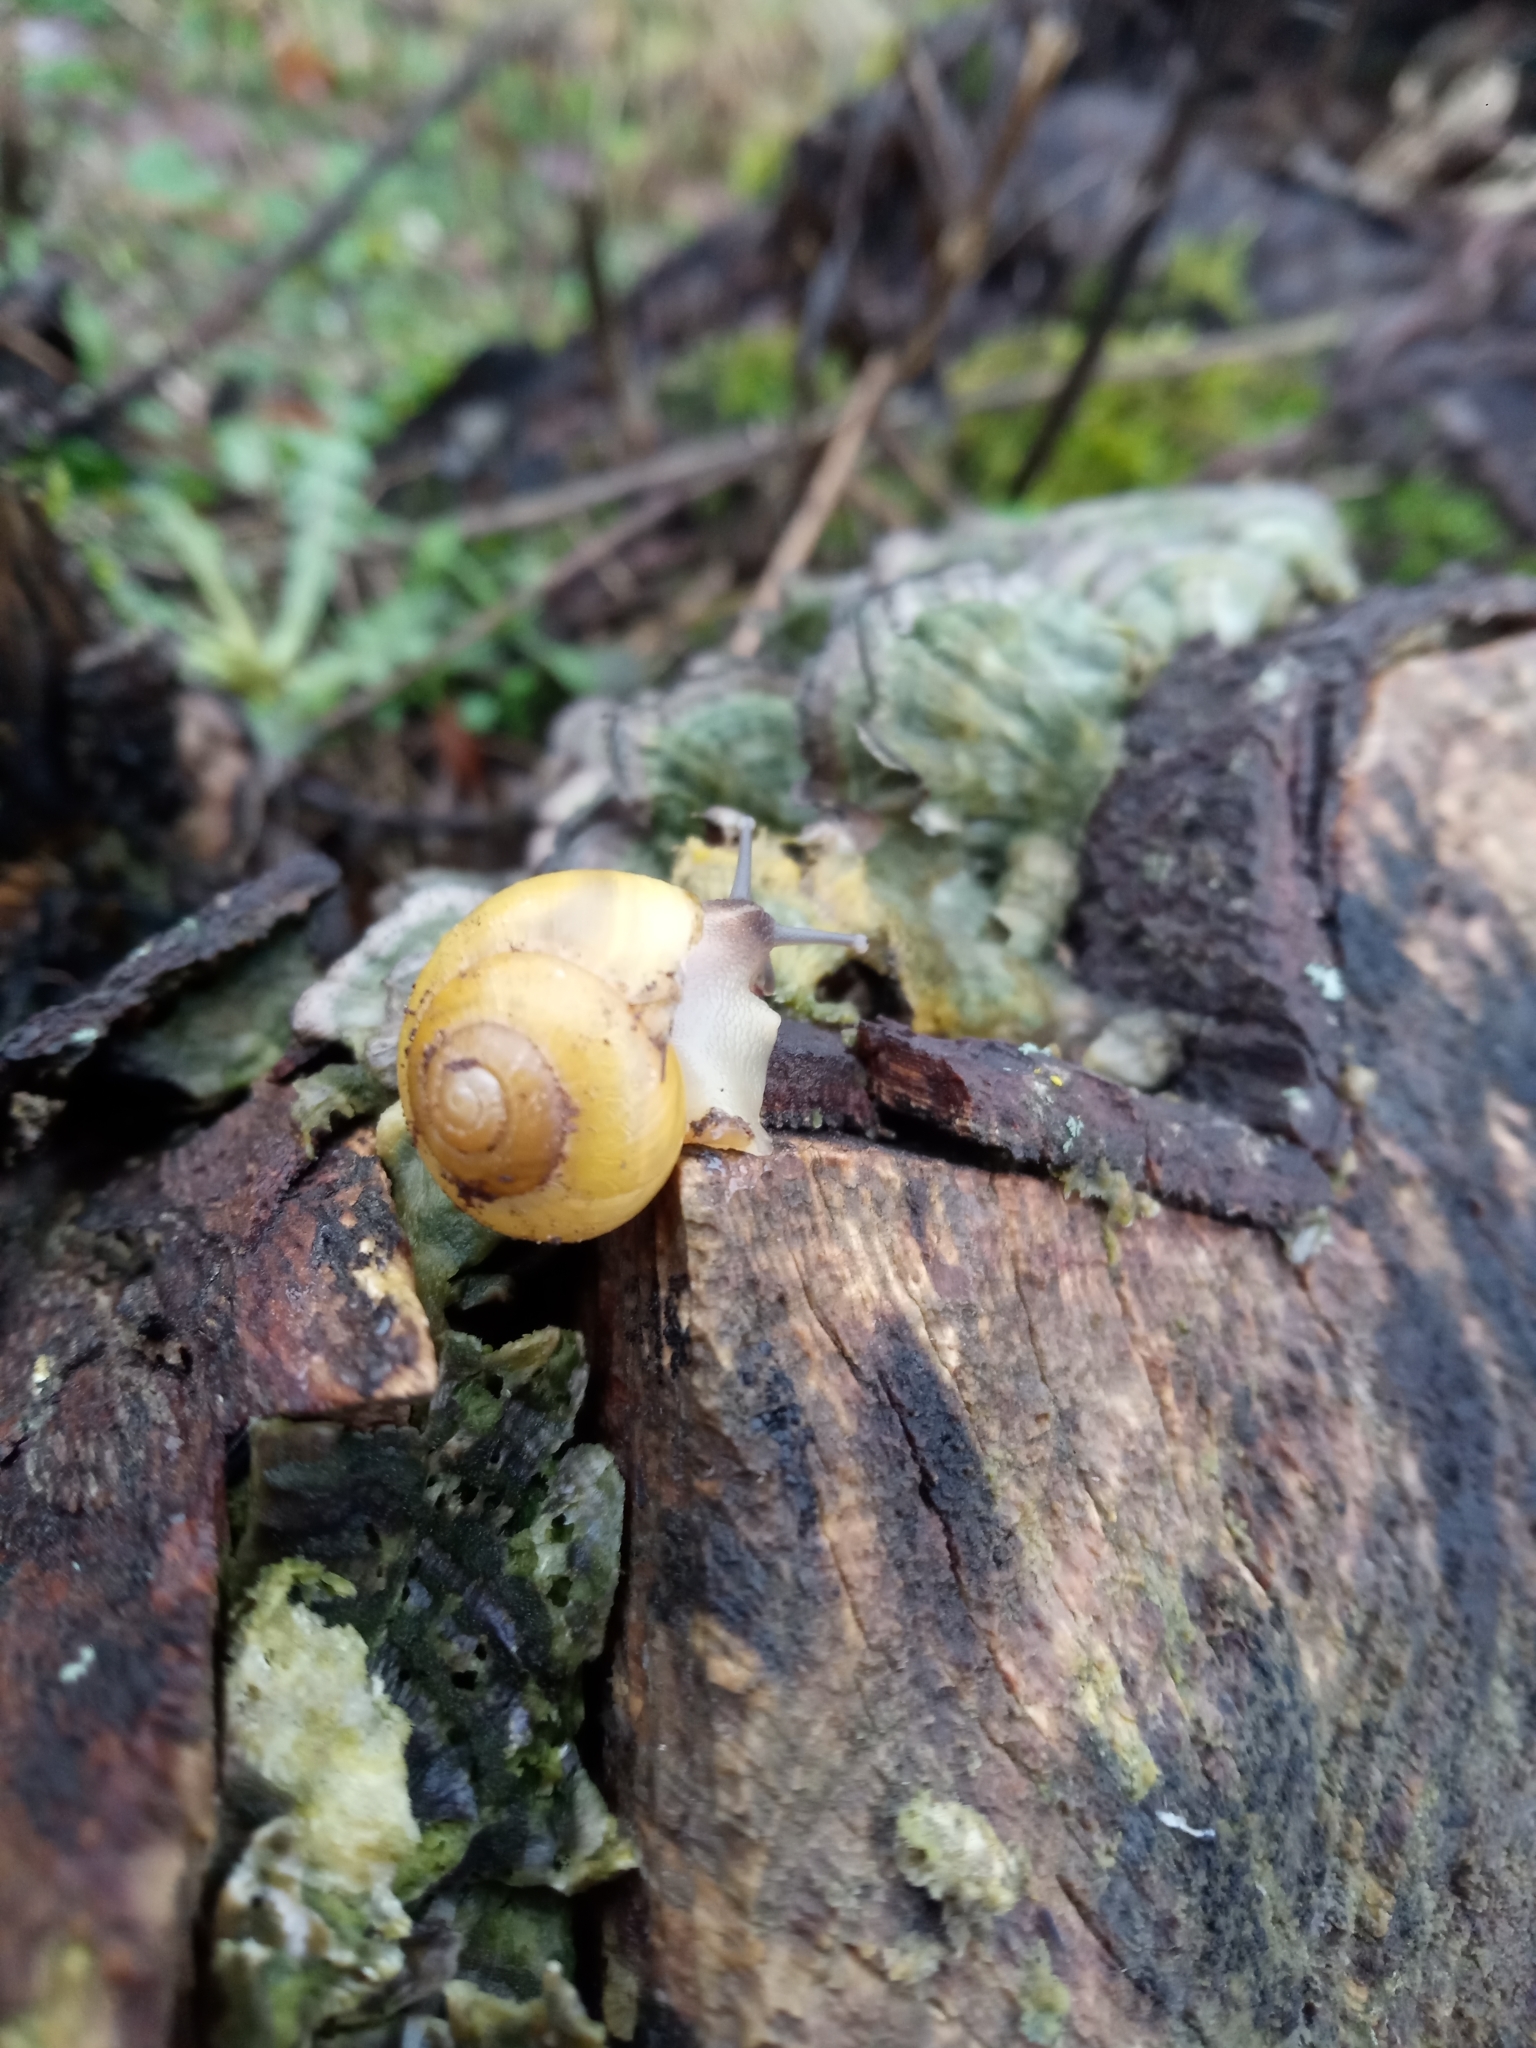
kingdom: Animalia
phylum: Mollusca
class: Gastropoda
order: Stylommatophora
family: Helicidae
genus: Cepaea
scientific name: Cepaea
